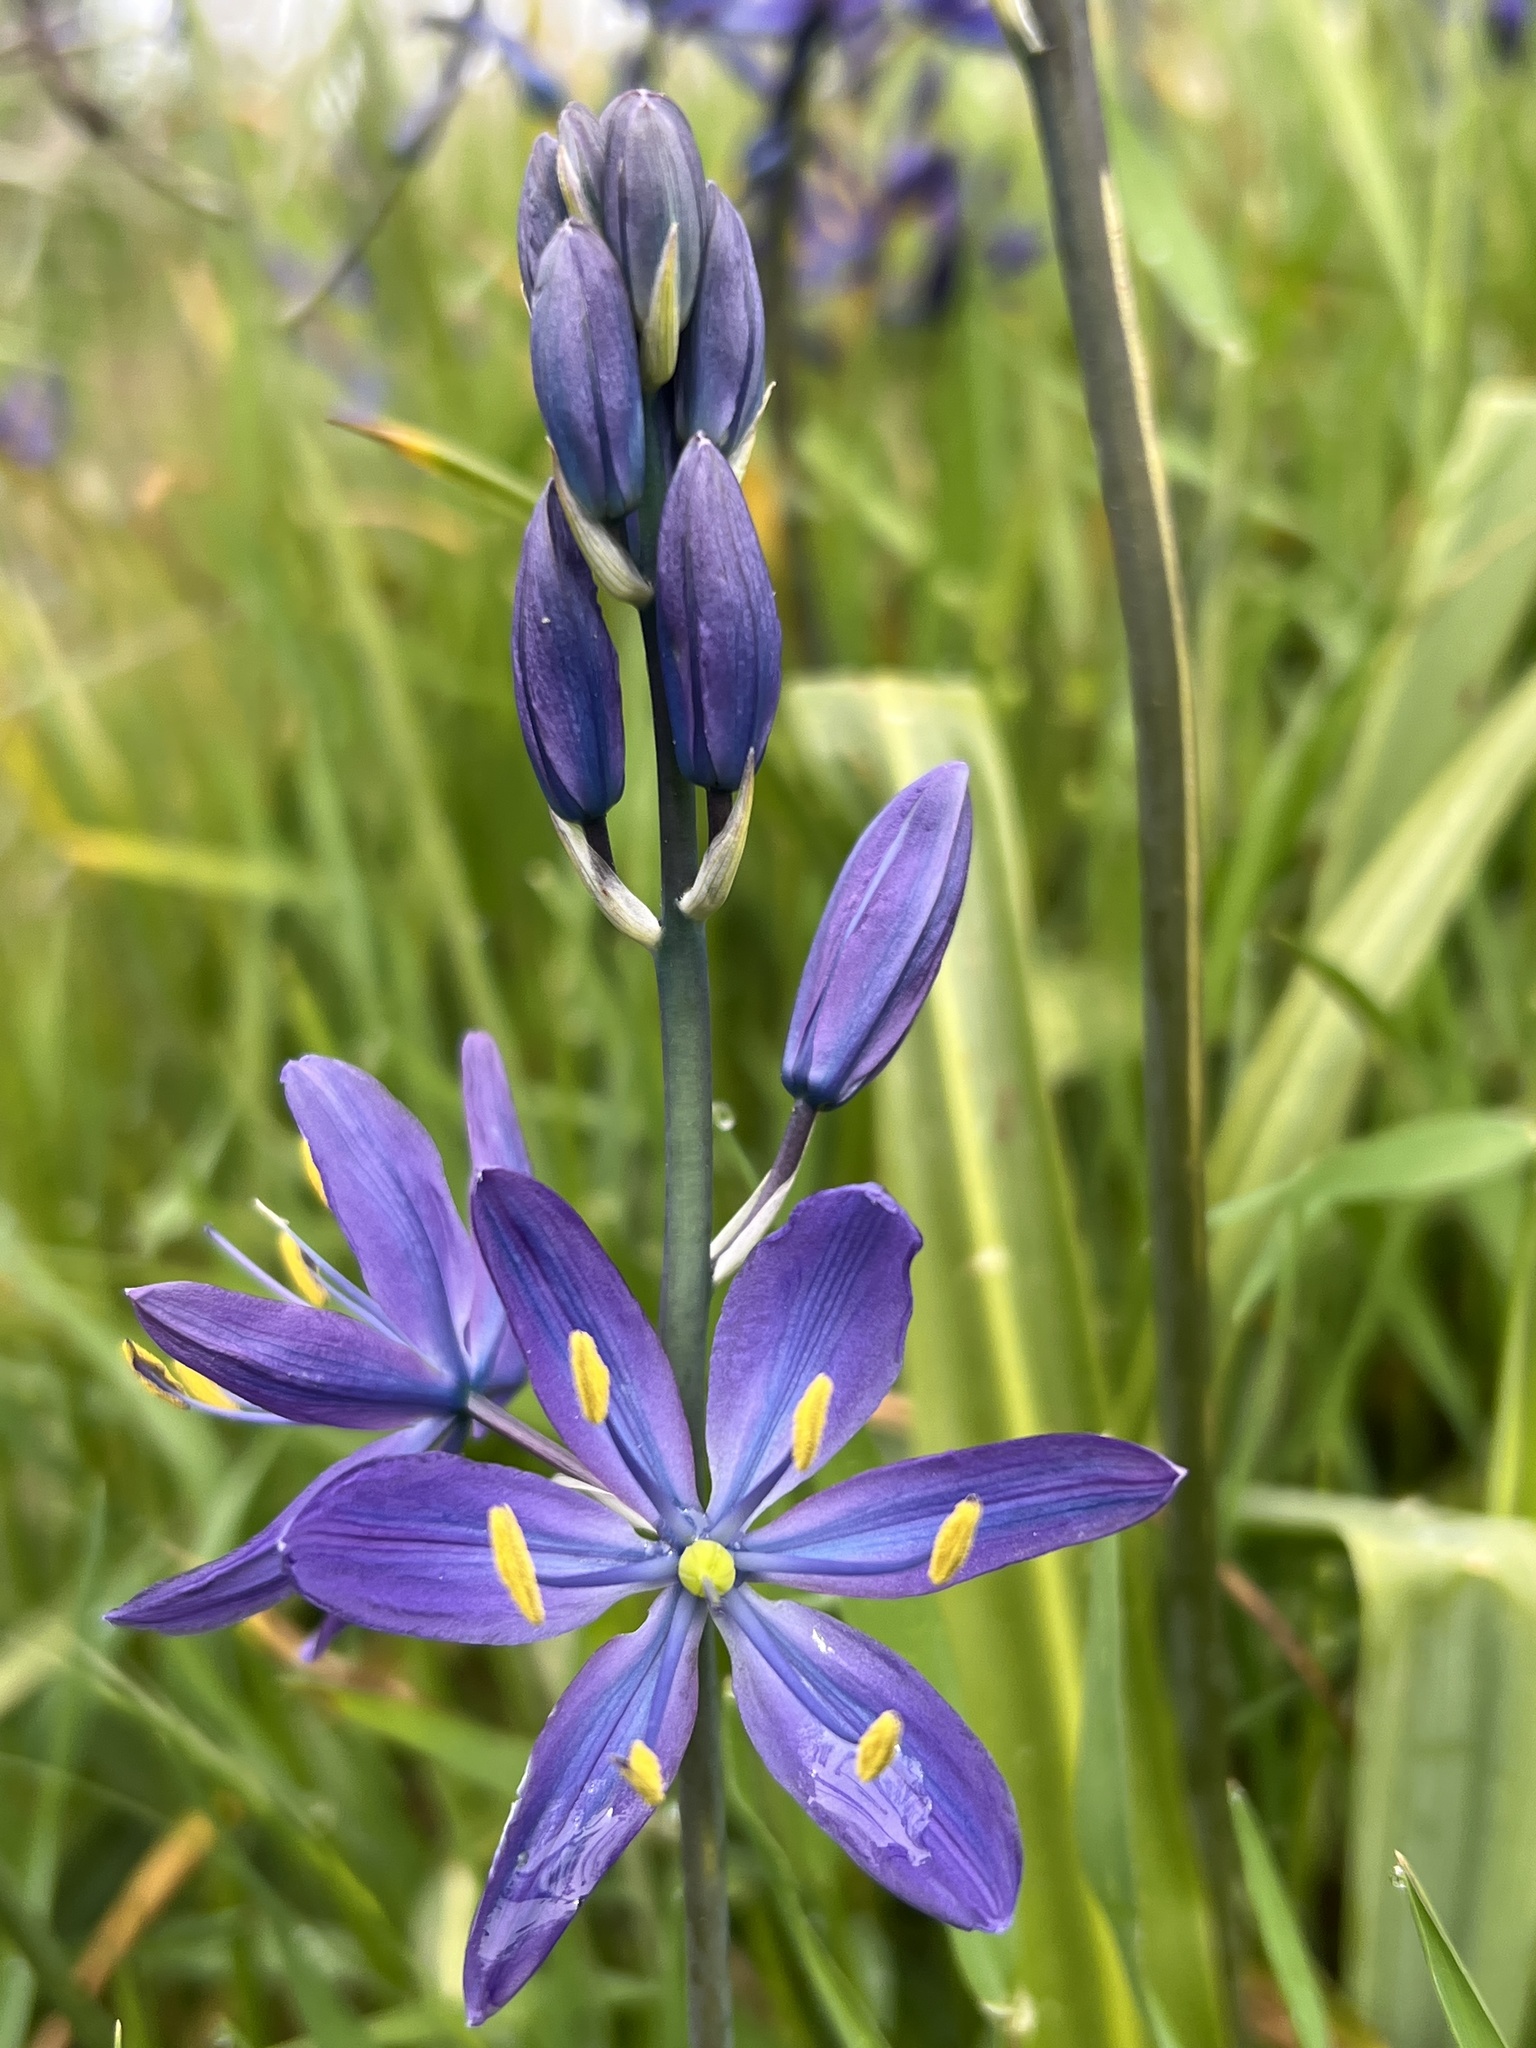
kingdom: Plantae
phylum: Tracheophyta
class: Liliopsida
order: Asparagales
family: Asparagaceae
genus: Camassia
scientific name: Camassia leichtlinii
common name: Leichtlin's camas
